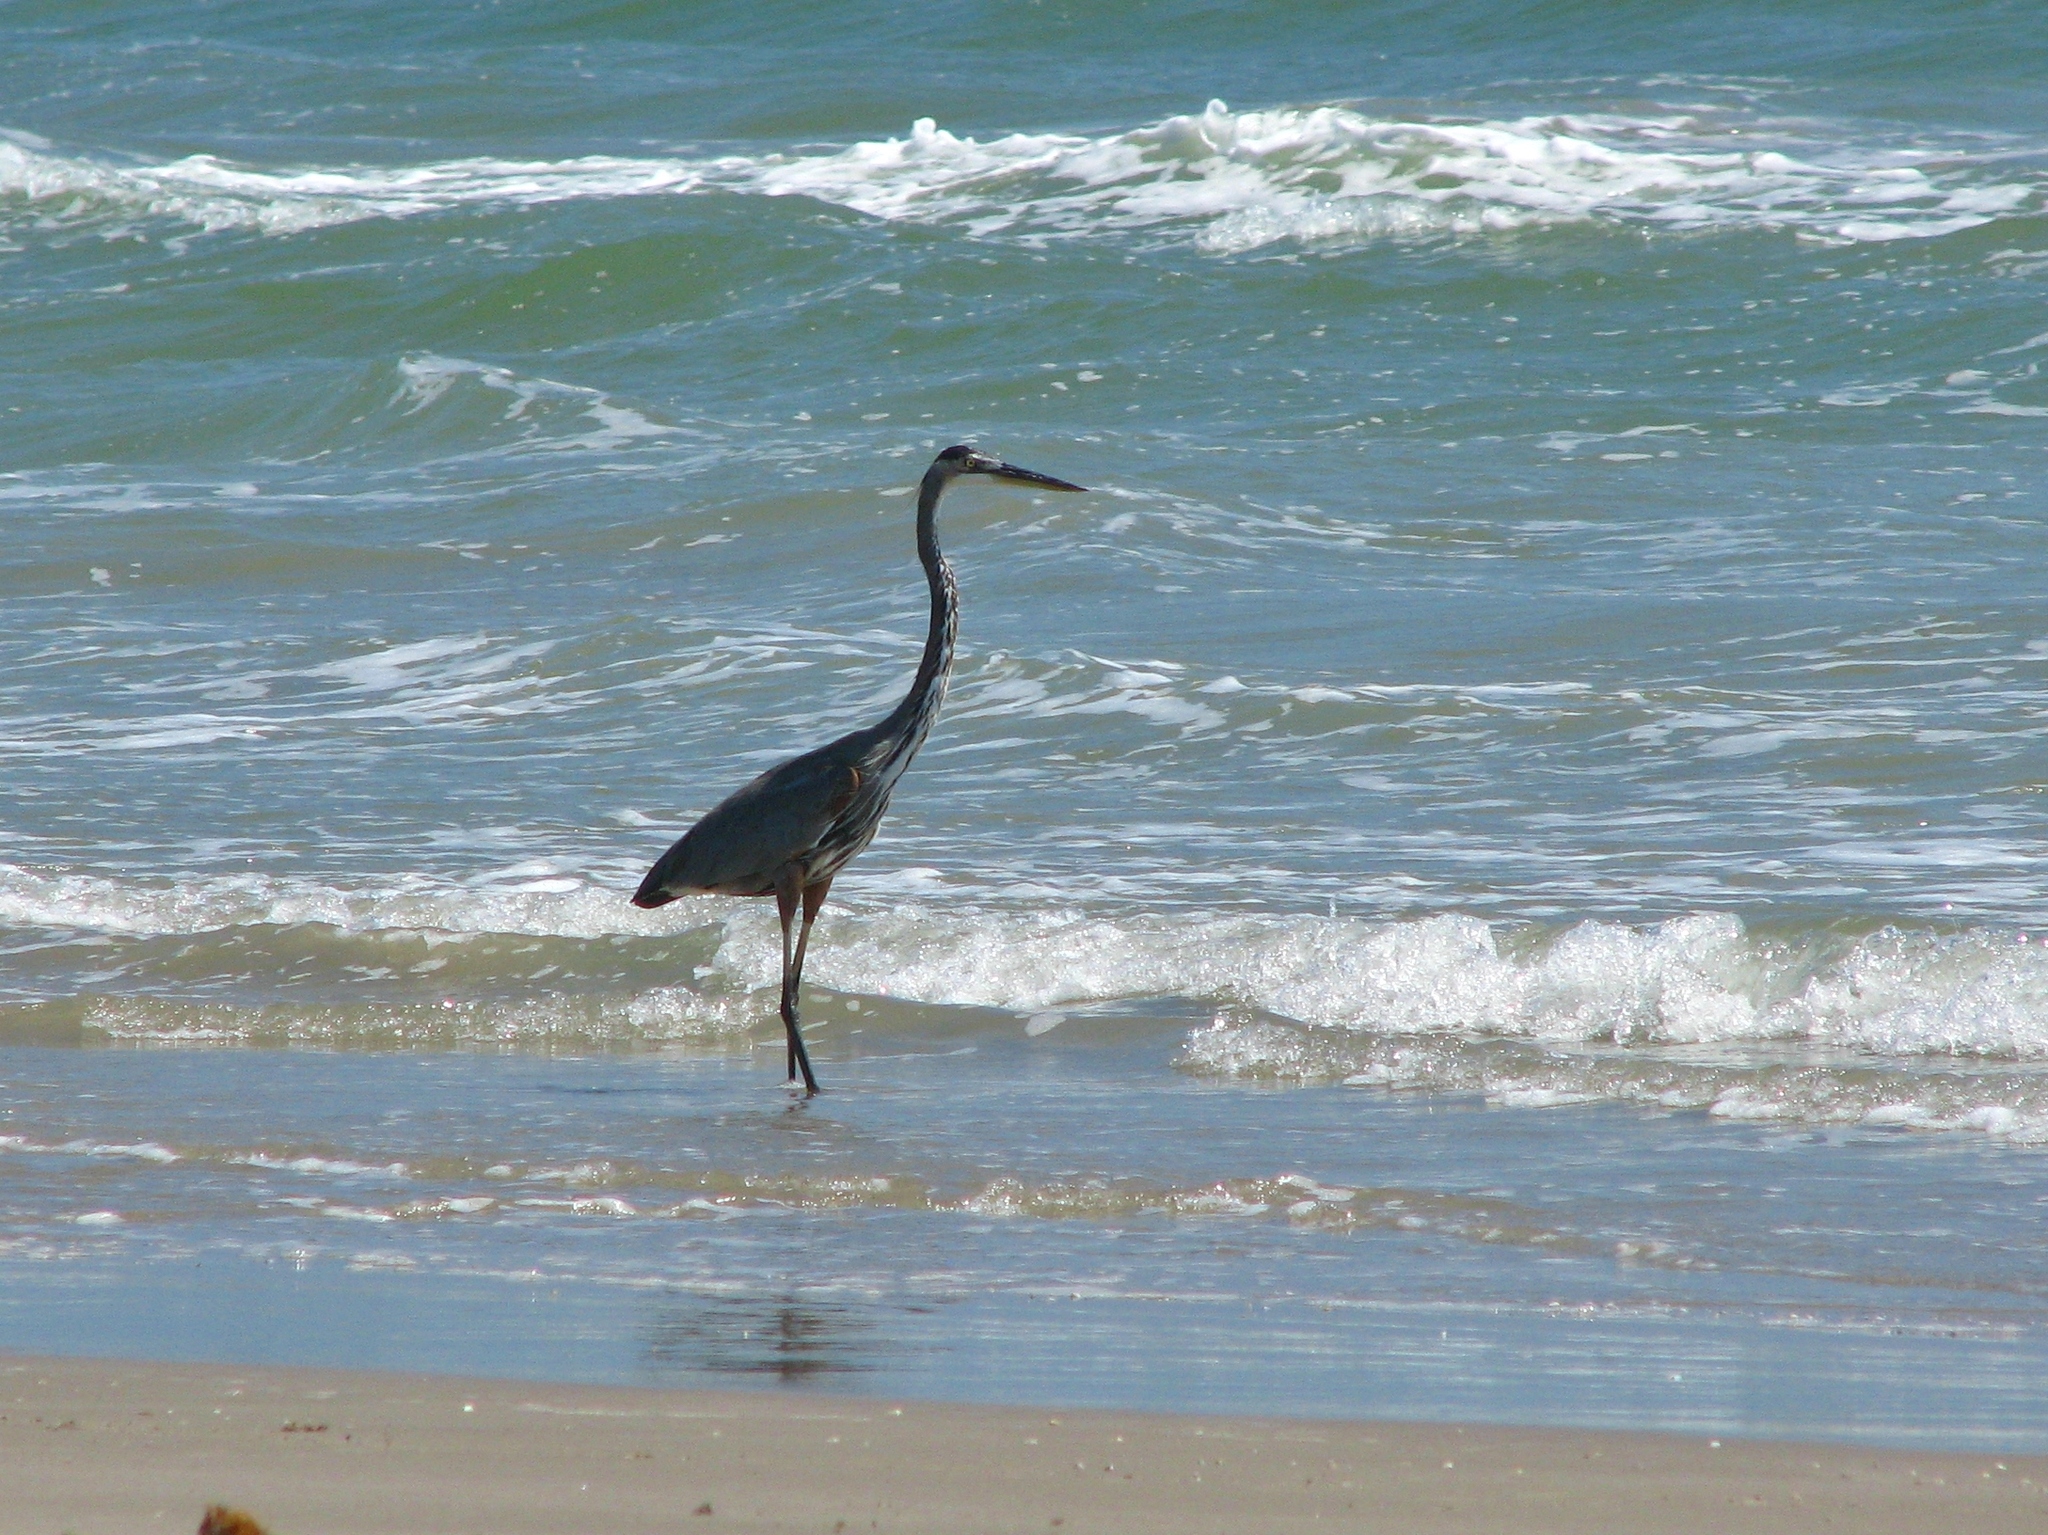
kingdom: Animalia
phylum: Chordata
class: Aves
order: Pelecaniformes
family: Ardeidae
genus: Ardea
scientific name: Ardea herodias
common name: Great blue heron
